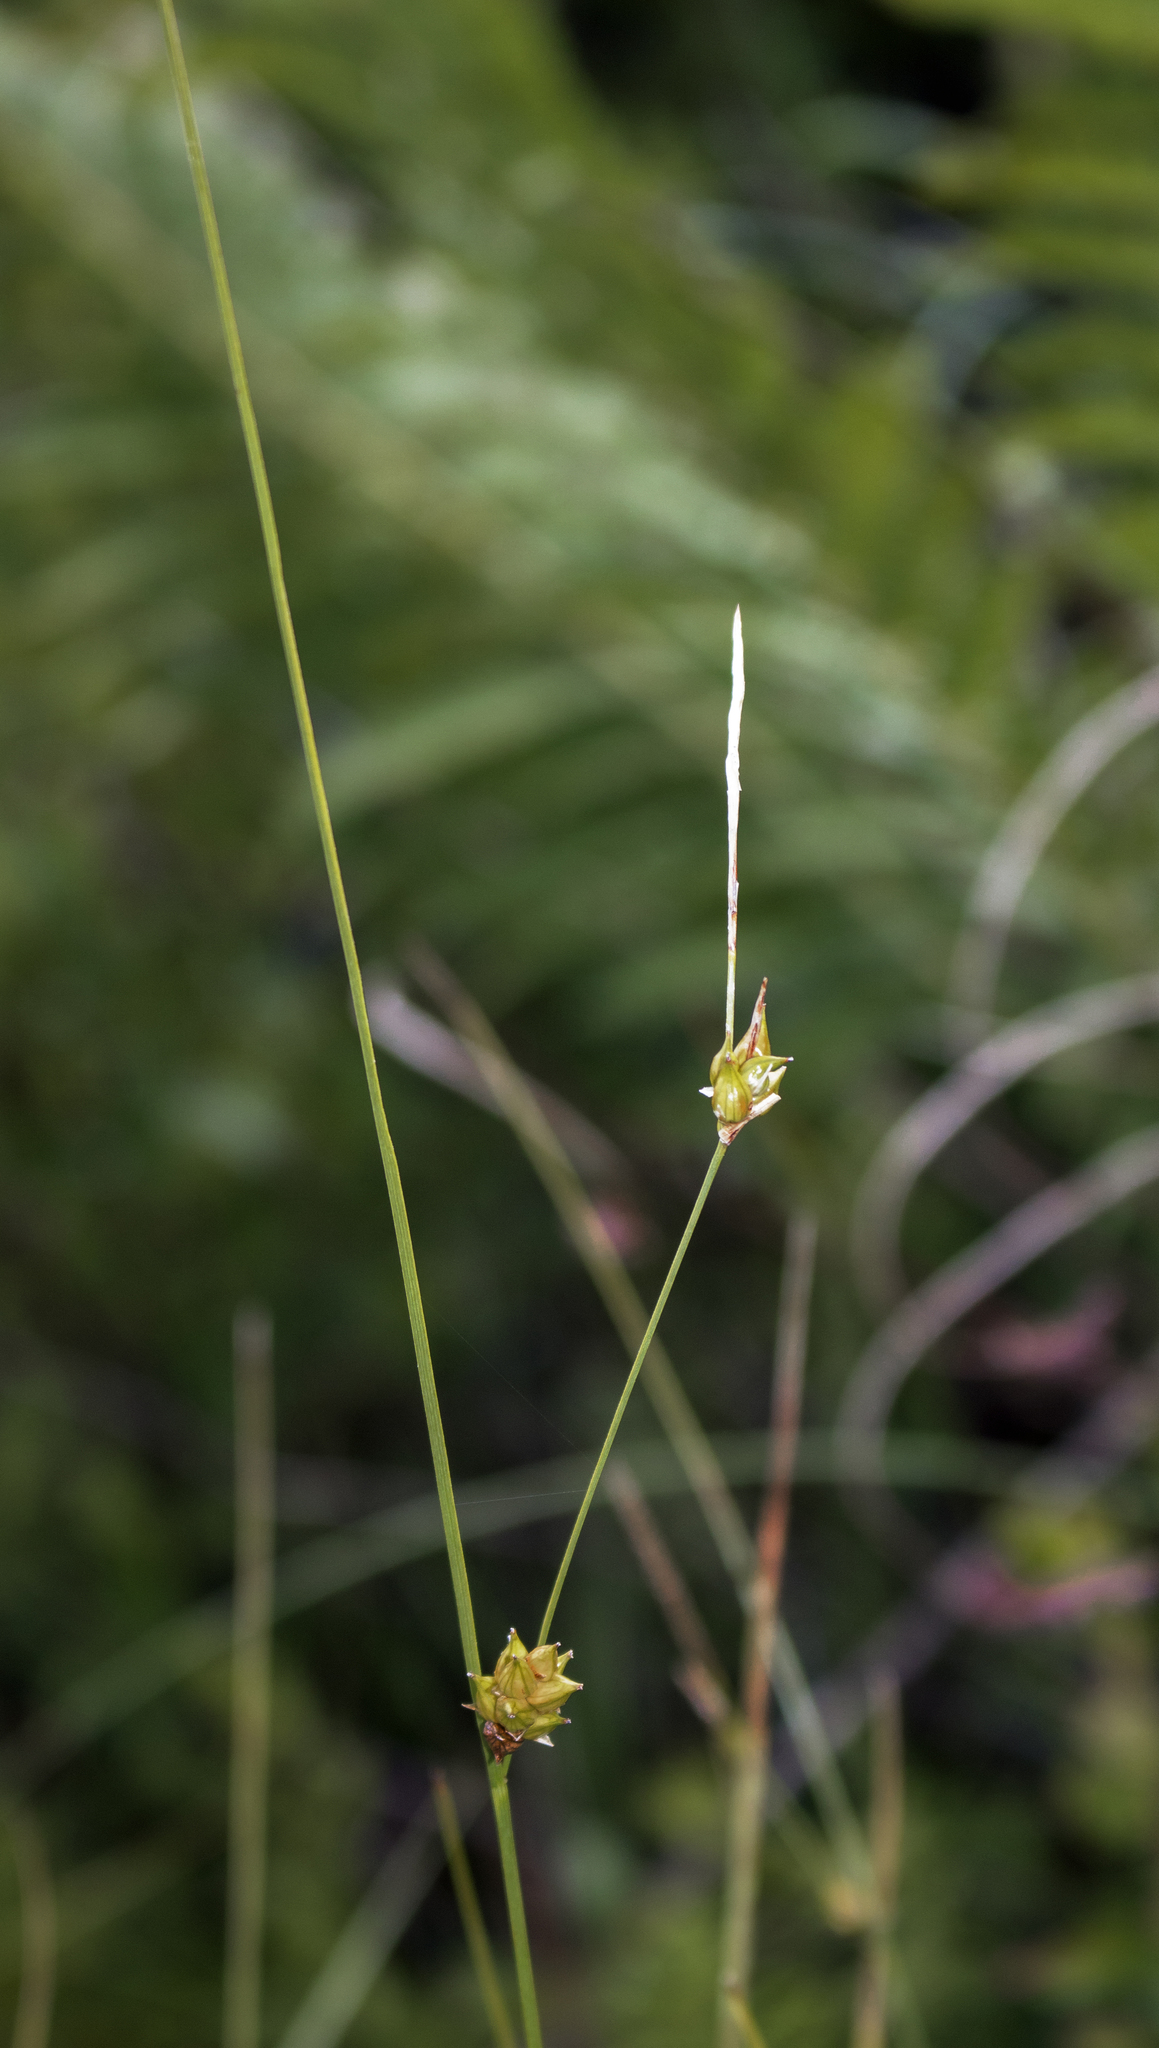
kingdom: Plantae
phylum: Tracheophyta
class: Liliopsida
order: Poales
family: Cyperaceae
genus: Carex
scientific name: Carex oligosperma
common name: Few-seed sedge
